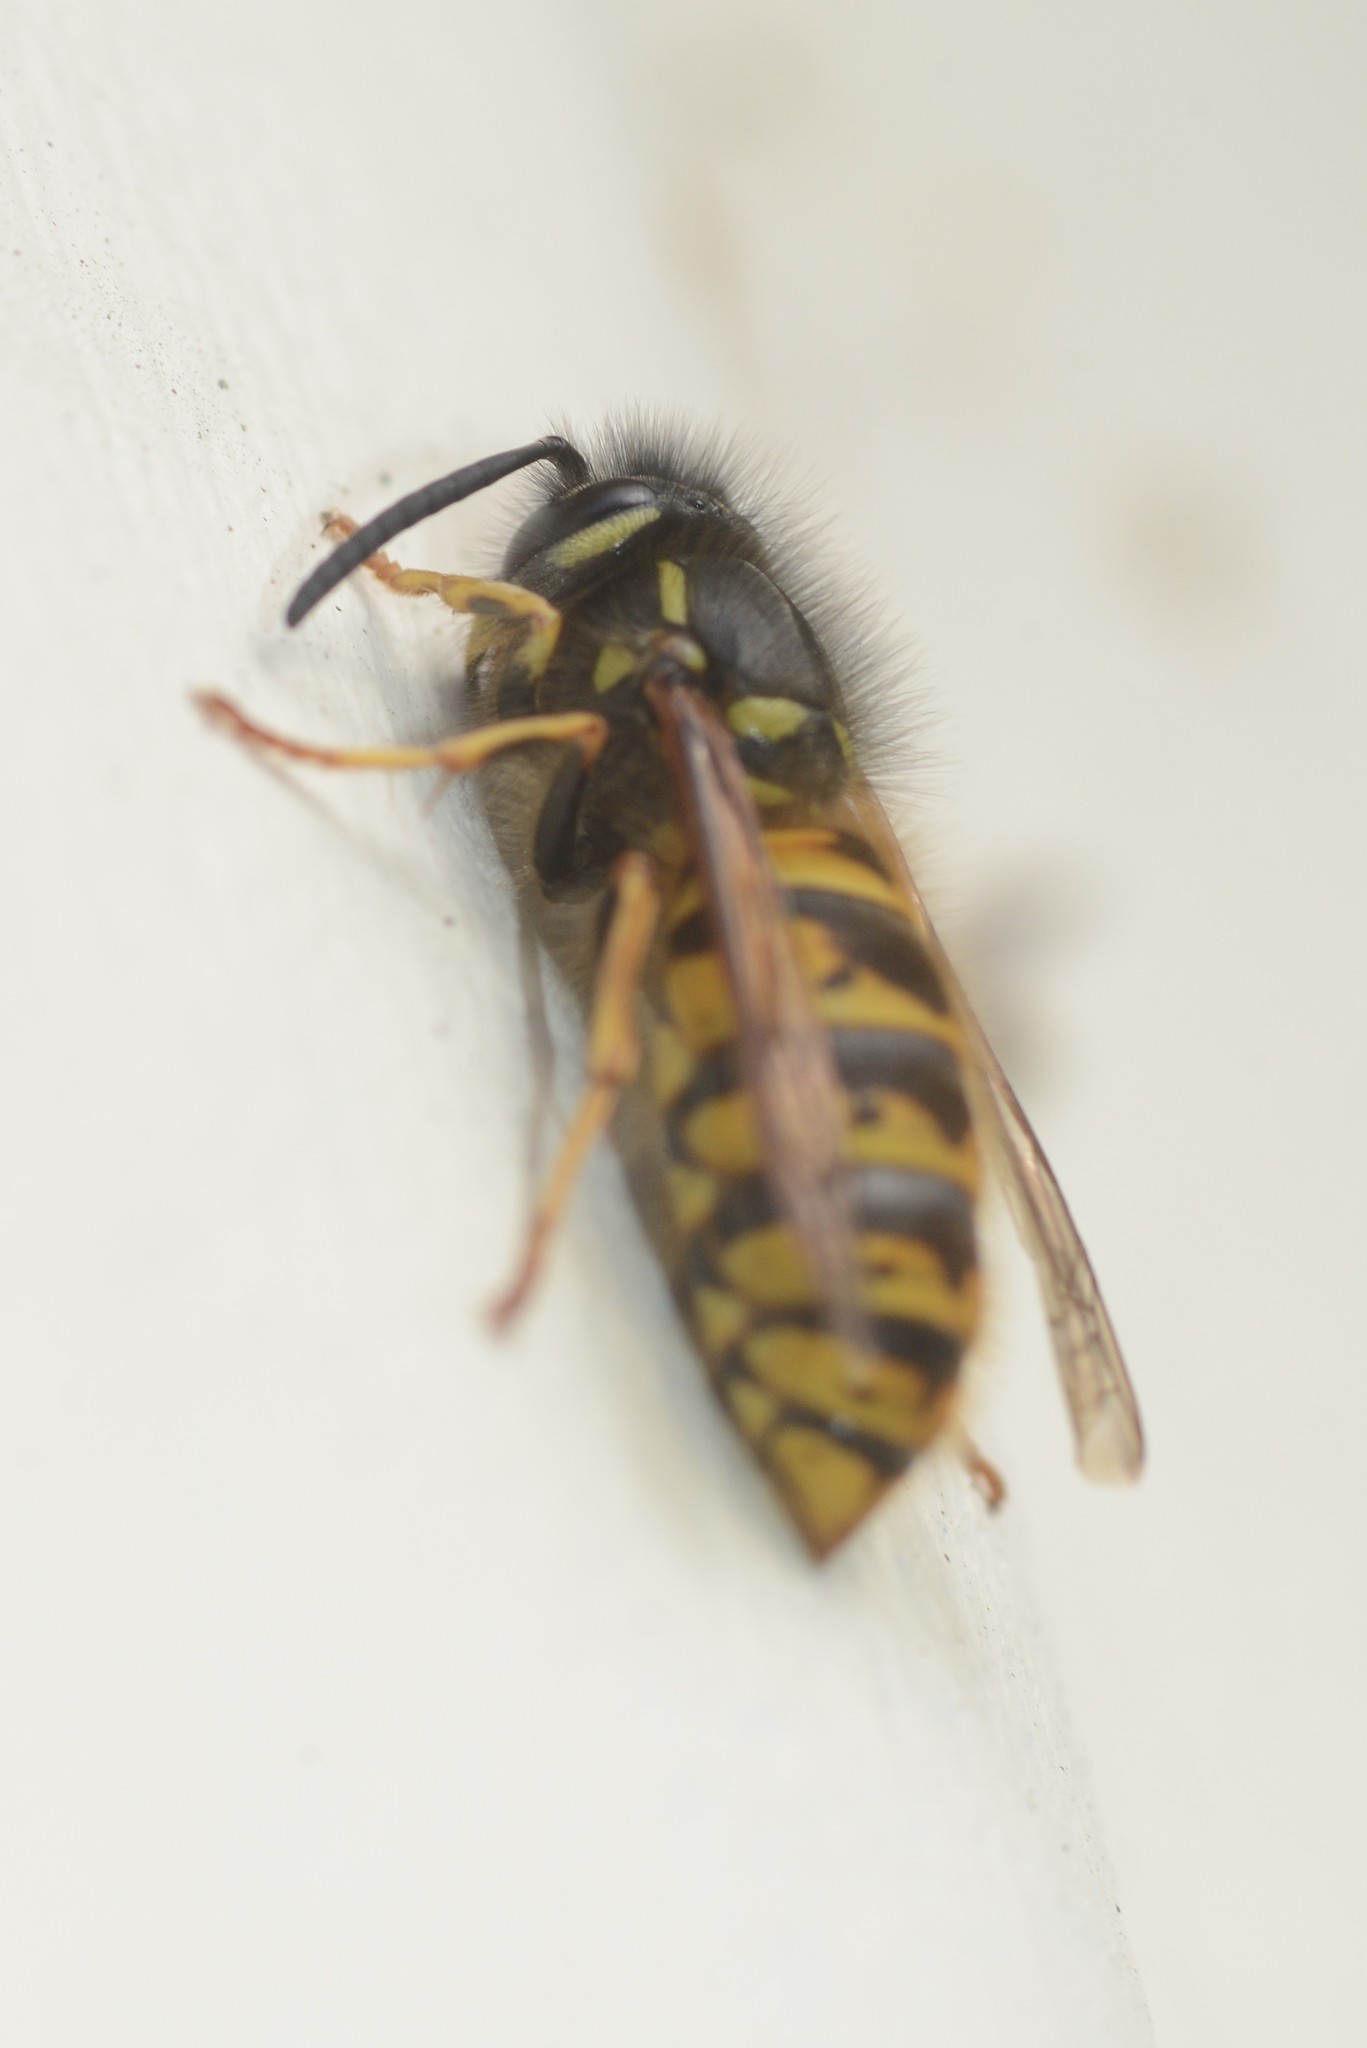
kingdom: Animalia
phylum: Arthropoda
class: Insecta
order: Hymenoptera
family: Vespidae
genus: Vespula
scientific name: Vespula vulgaris
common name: Common wasp
